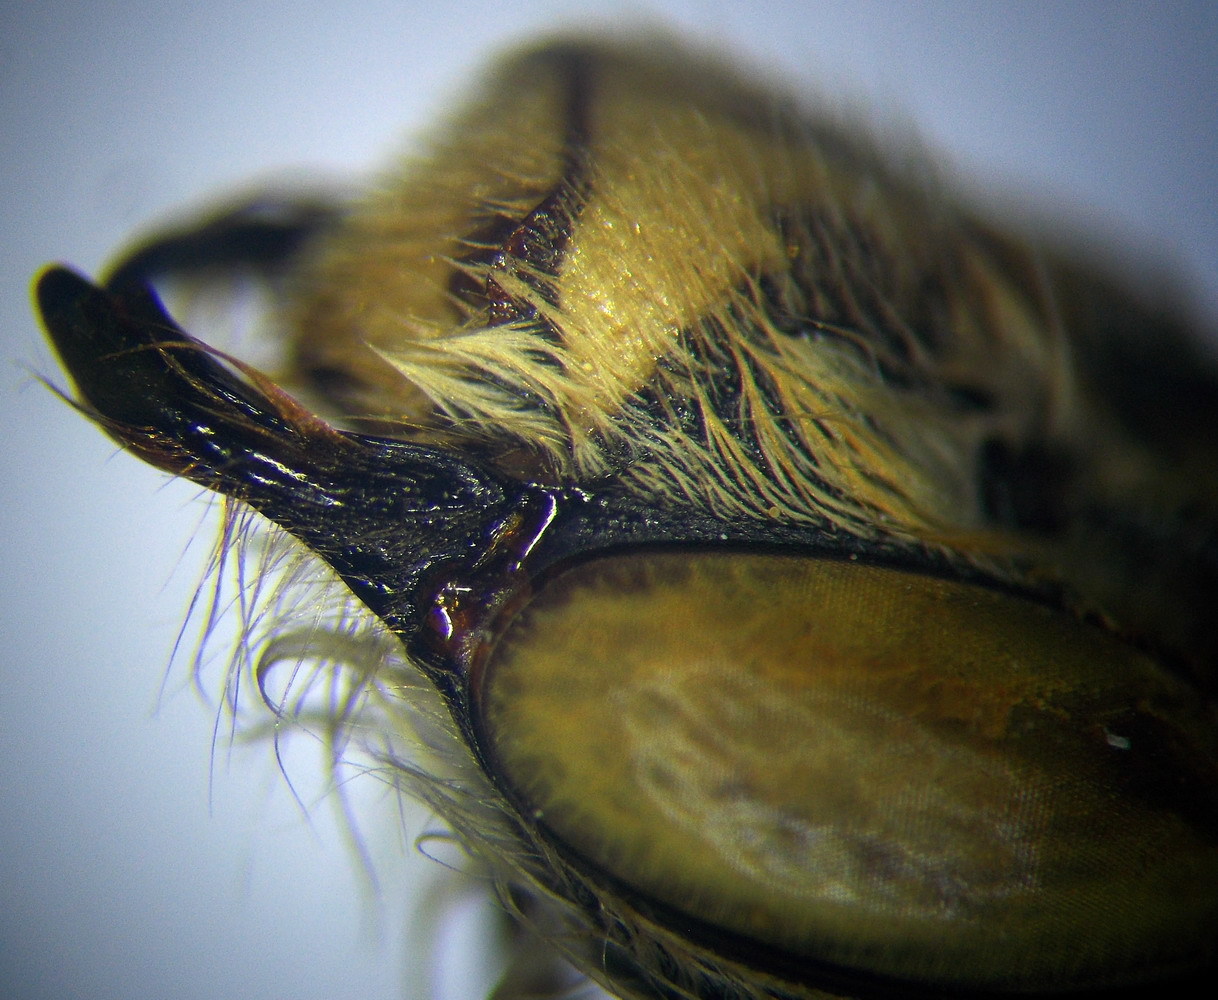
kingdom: Animalia
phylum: Arthropoda
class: Insecta
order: Hymenoptera
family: Apidae
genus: Anthophora
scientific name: Anthophora atricilla
